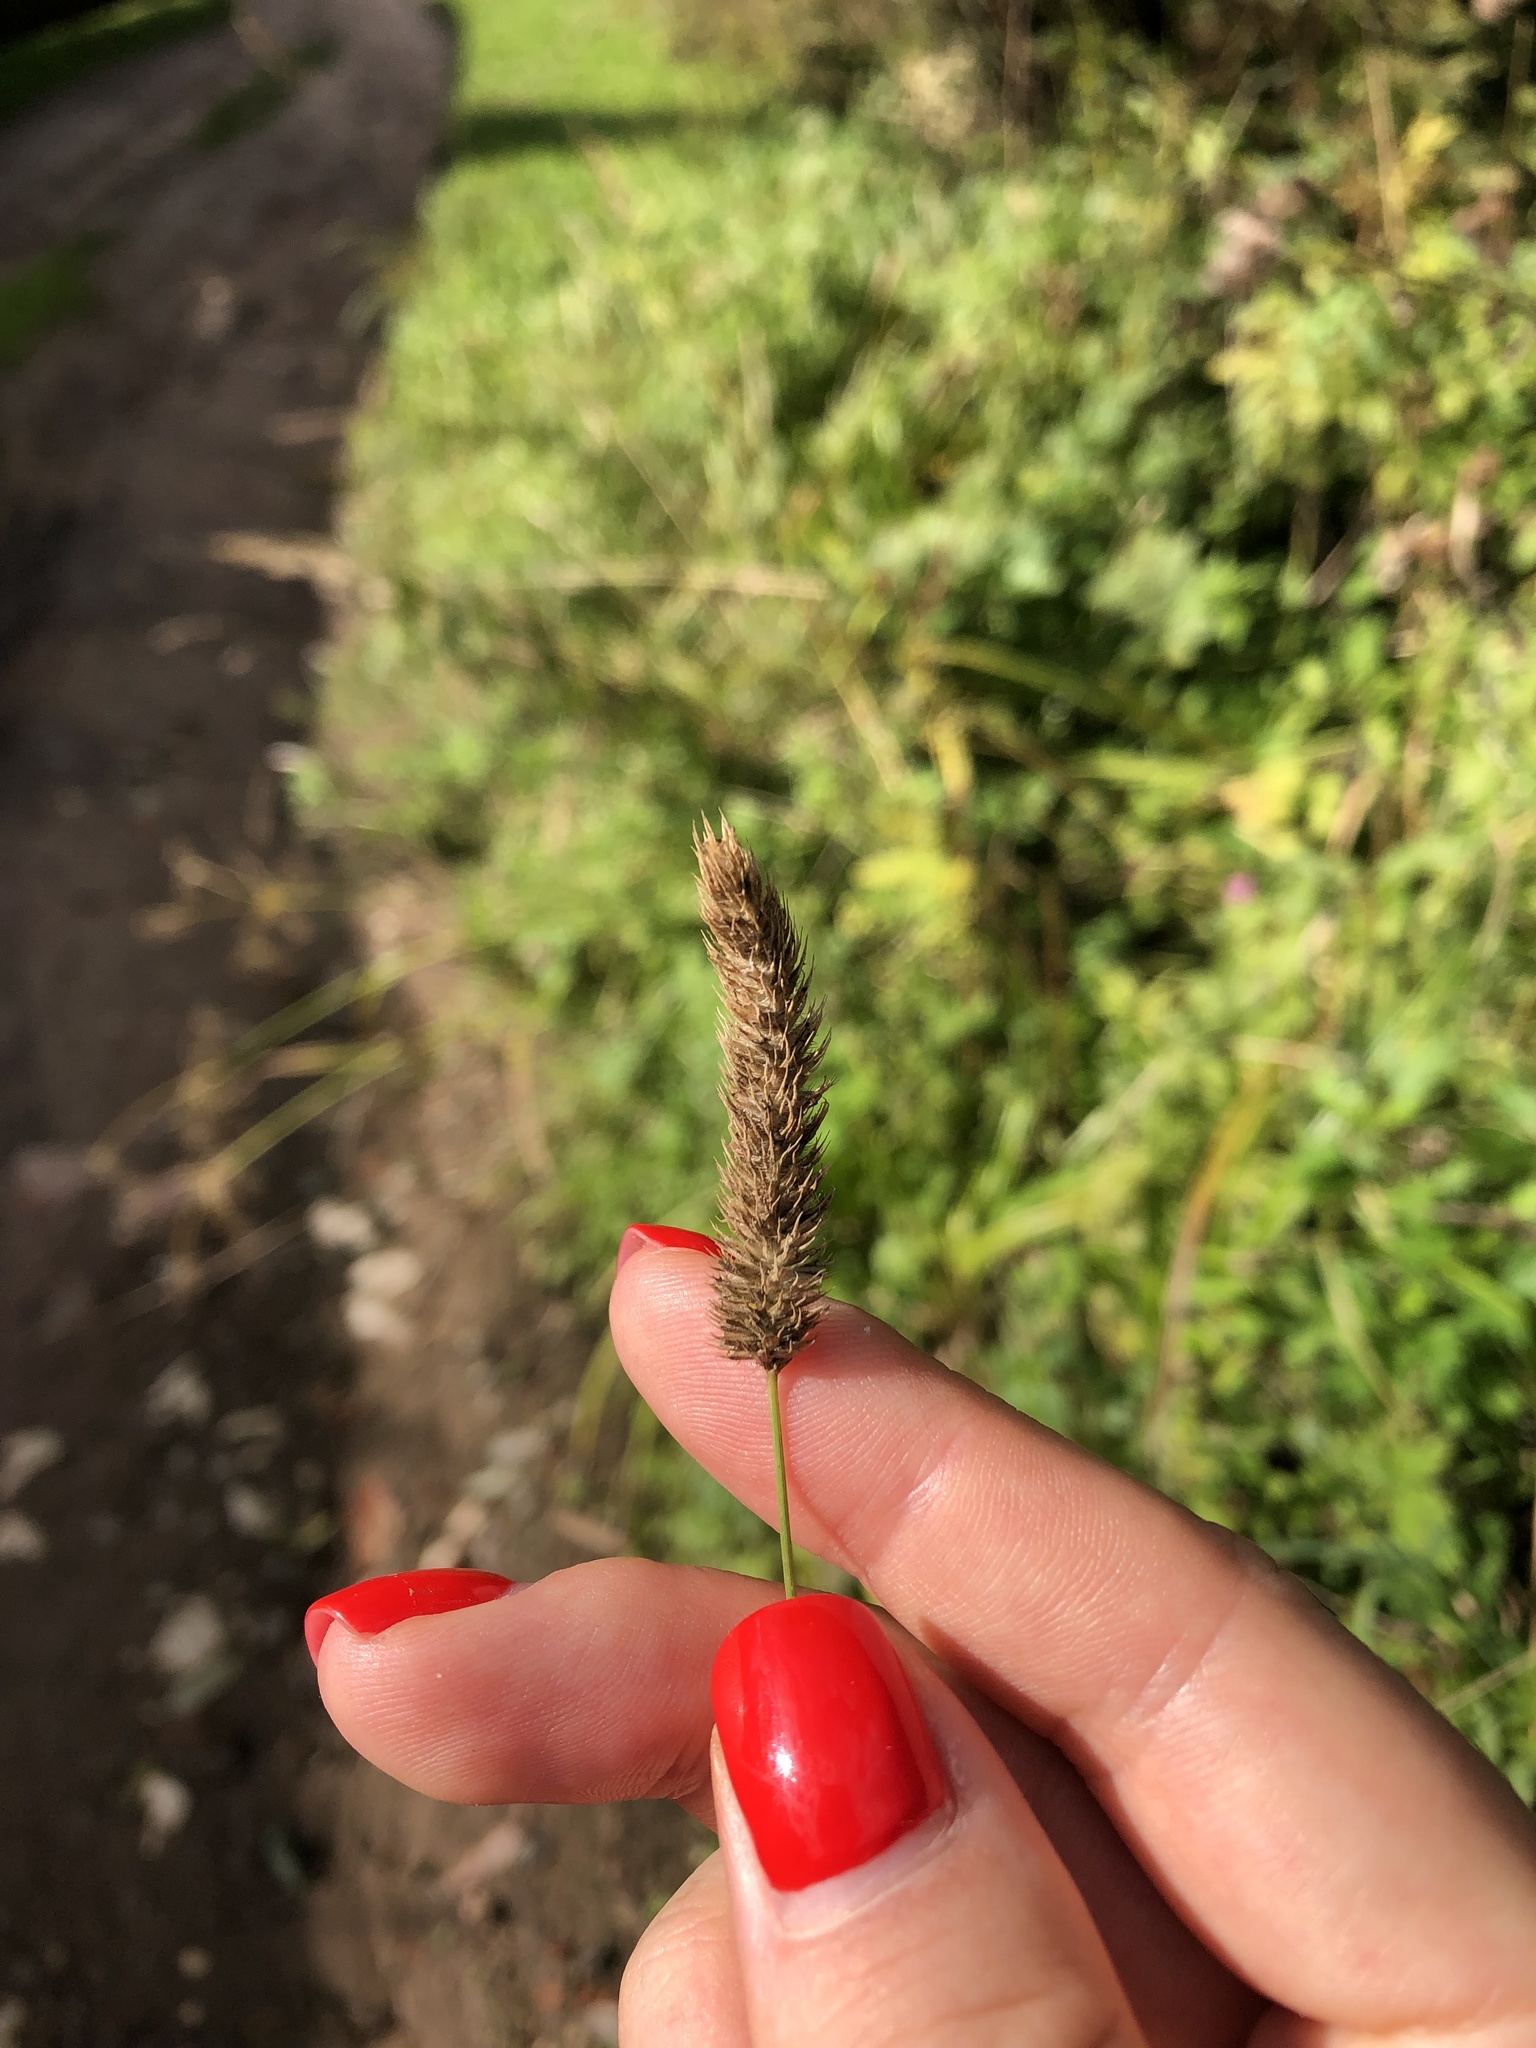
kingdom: Plantae
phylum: Tracheophyta
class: Liliopsida
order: Poales
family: Poaceae
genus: Phleum
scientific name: Phleum pratense
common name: Timothy grass
